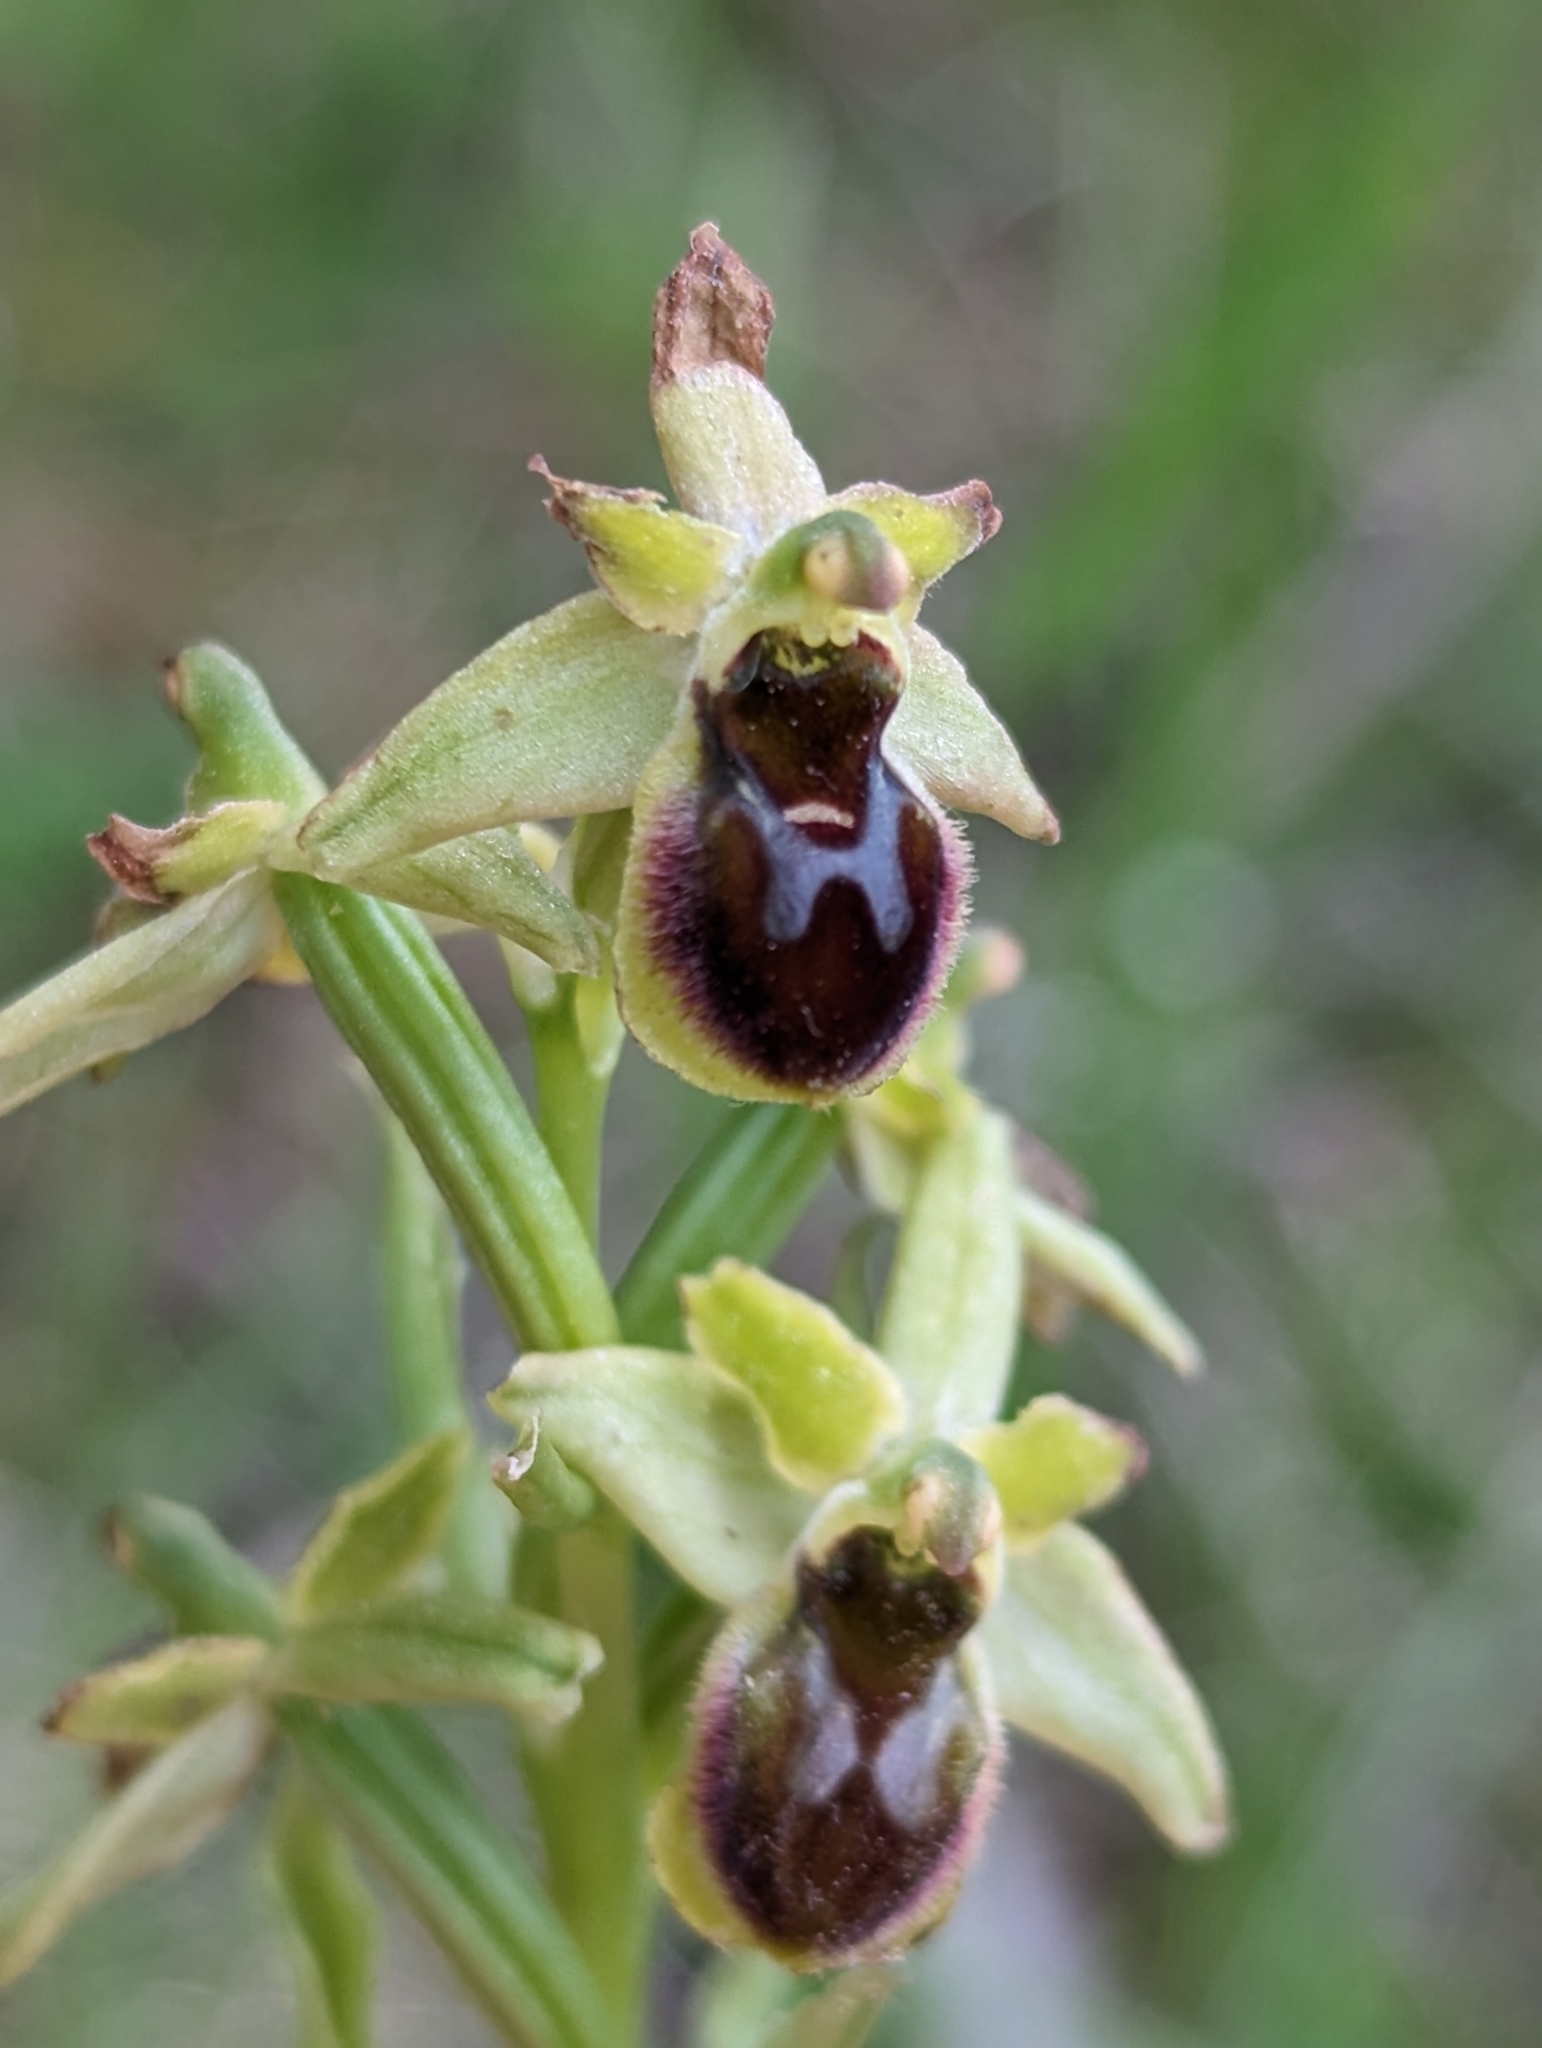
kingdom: Plantae
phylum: Tracheophyta
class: Liliopsida
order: Asparagales
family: Orchidaceae
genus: Ophrys
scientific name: Ophrys sphegodes
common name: Early spider-orchid
